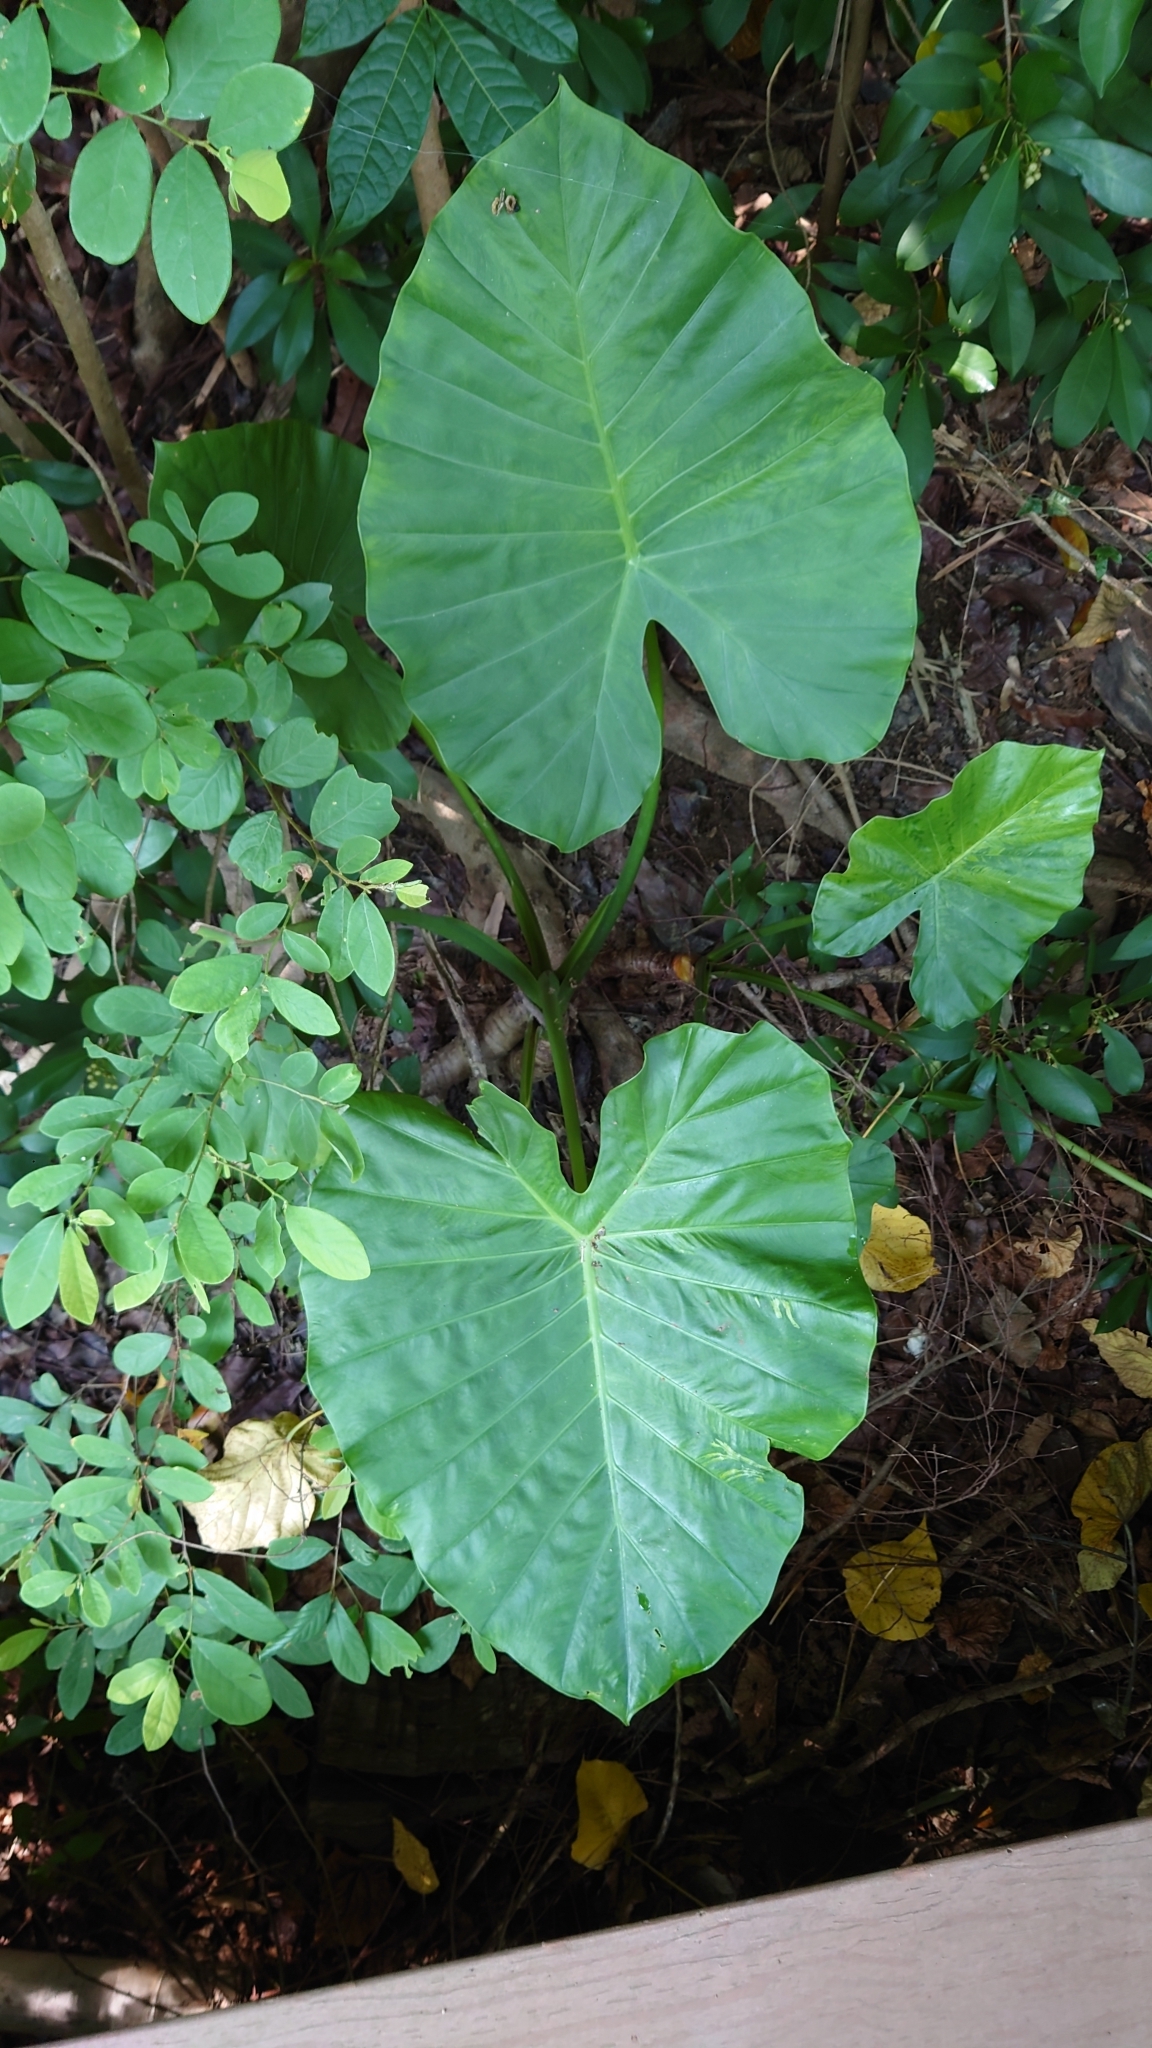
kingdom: Plantae
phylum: Tracheophyta
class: Liliopsida
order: Alismatales
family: Araceae
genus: Alocasia
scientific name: Alocasia odora
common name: Asian taro
